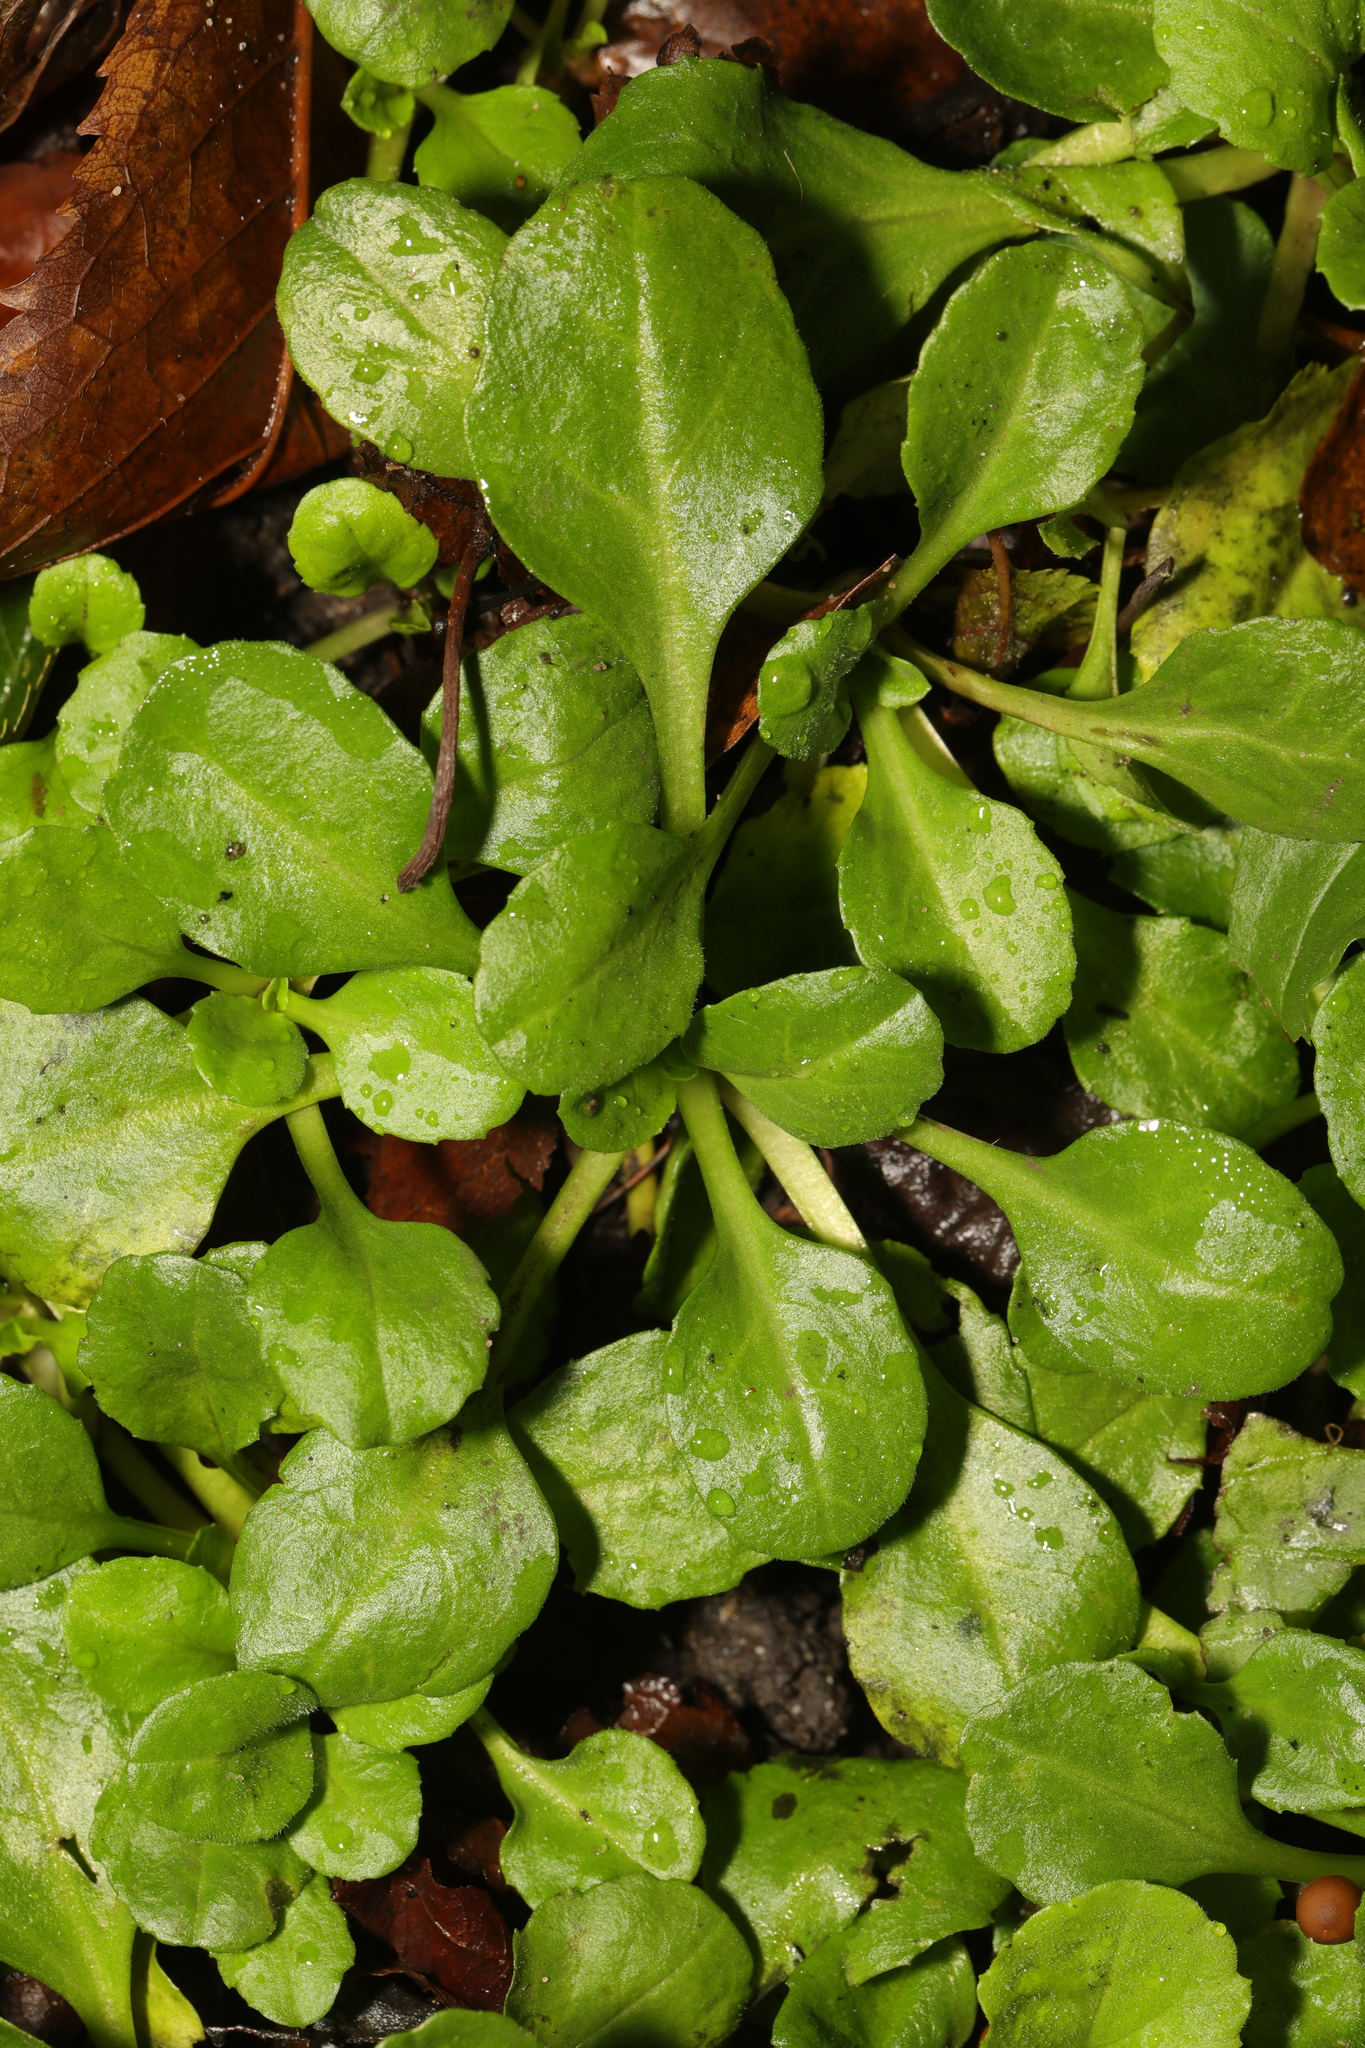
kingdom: Plantae
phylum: Tracheophyta
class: Magnoliopsida
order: Asterales
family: Asteraceae
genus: Bellis
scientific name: Bellis perennis
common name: Lawndaisy
